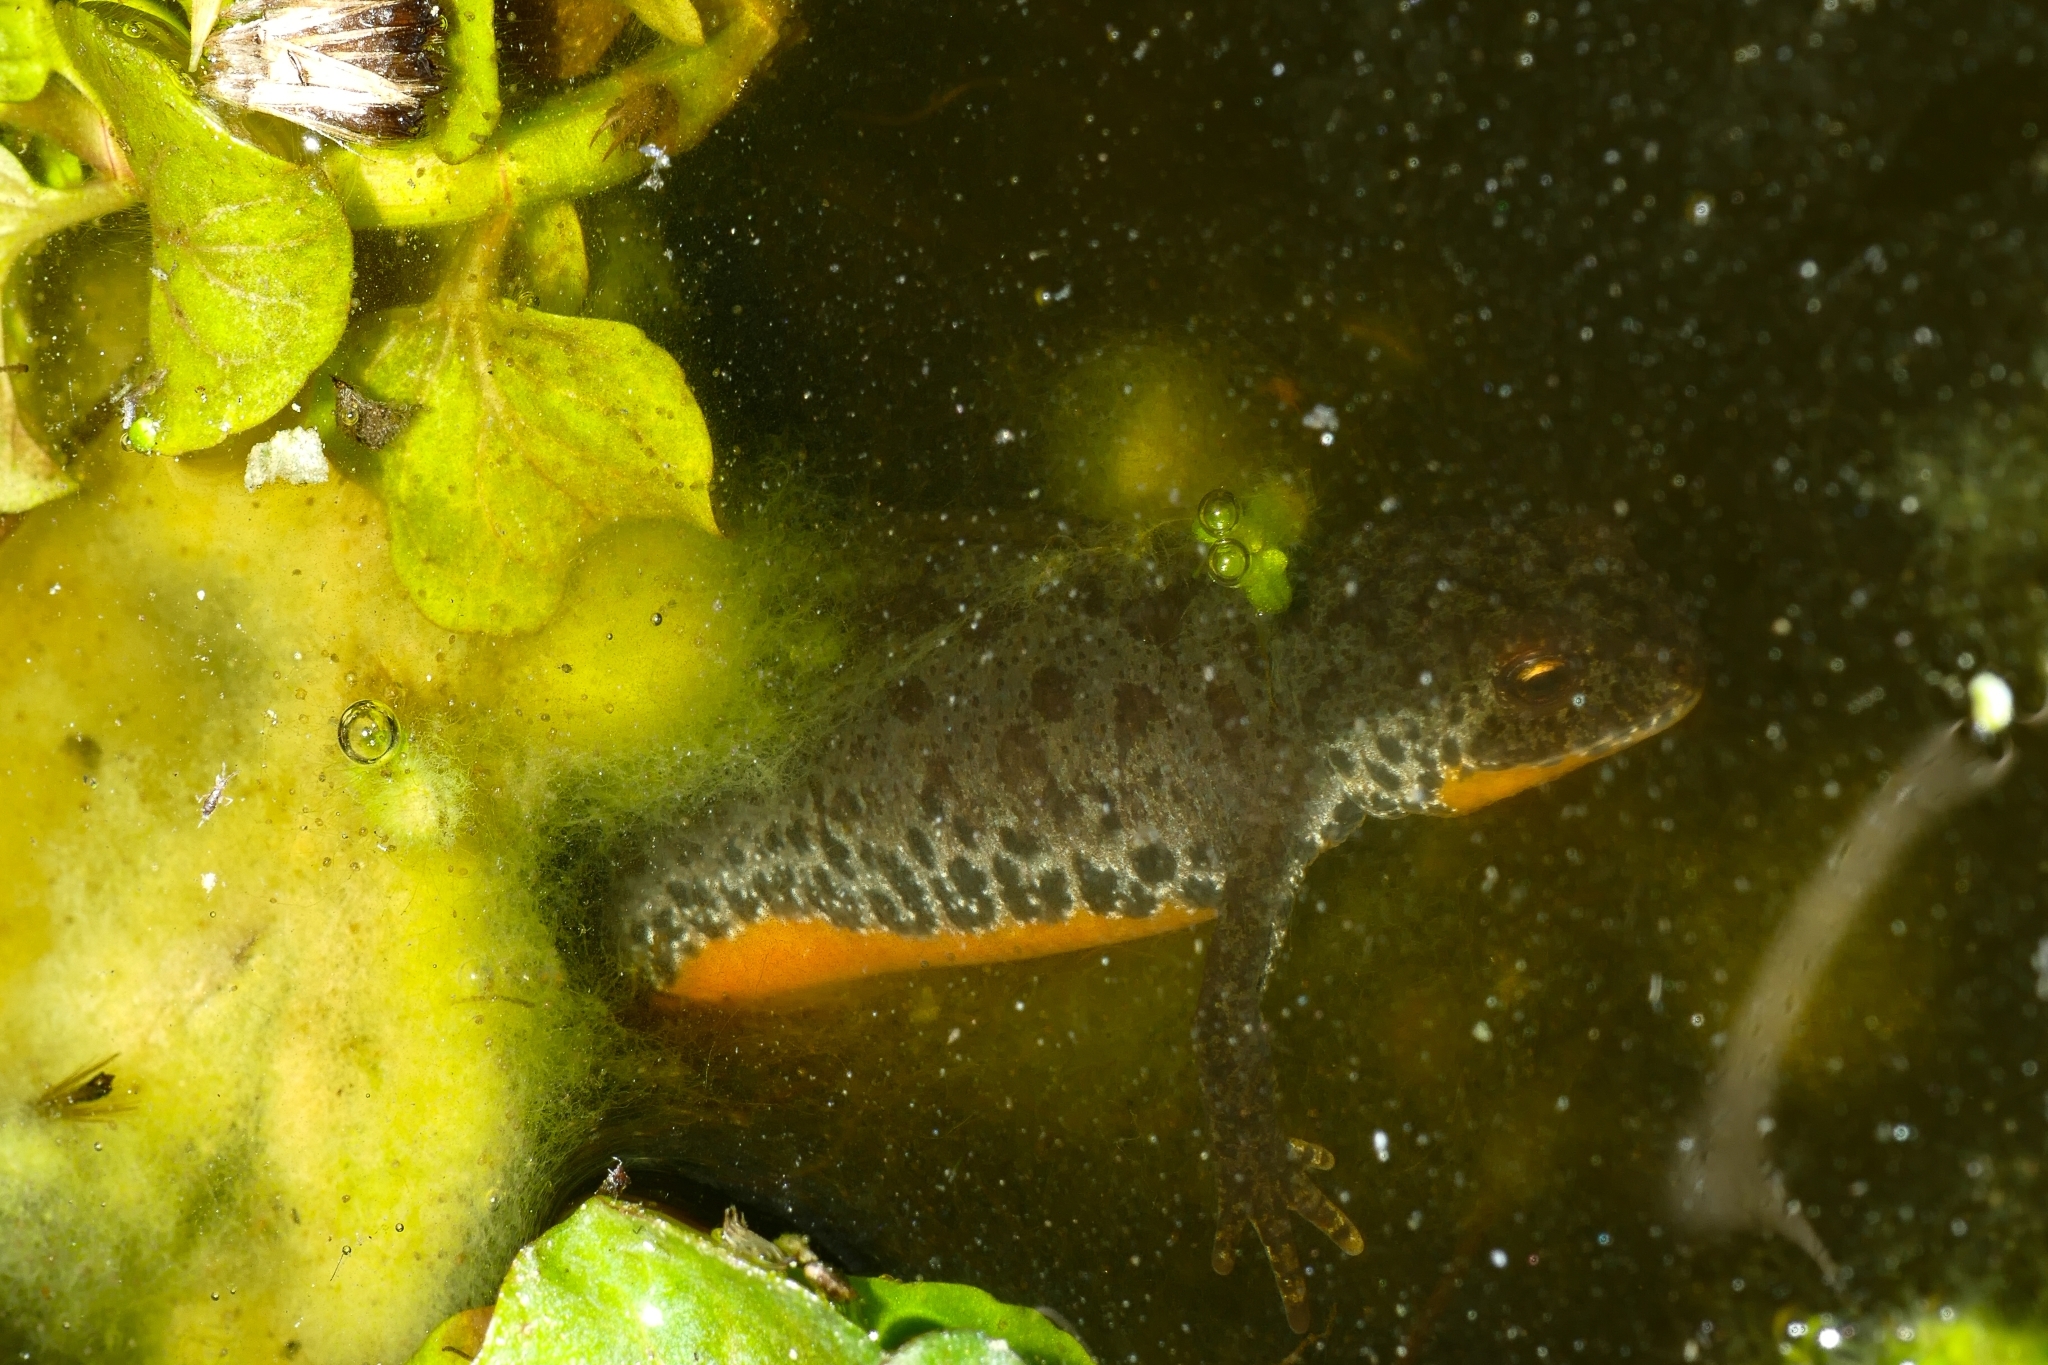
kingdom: Animalia
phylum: Chordata
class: Amphibia
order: Caudata
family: Salamandridae
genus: Ichthyosaura
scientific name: Ichthyosaura alpestris
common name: Alpine newt
